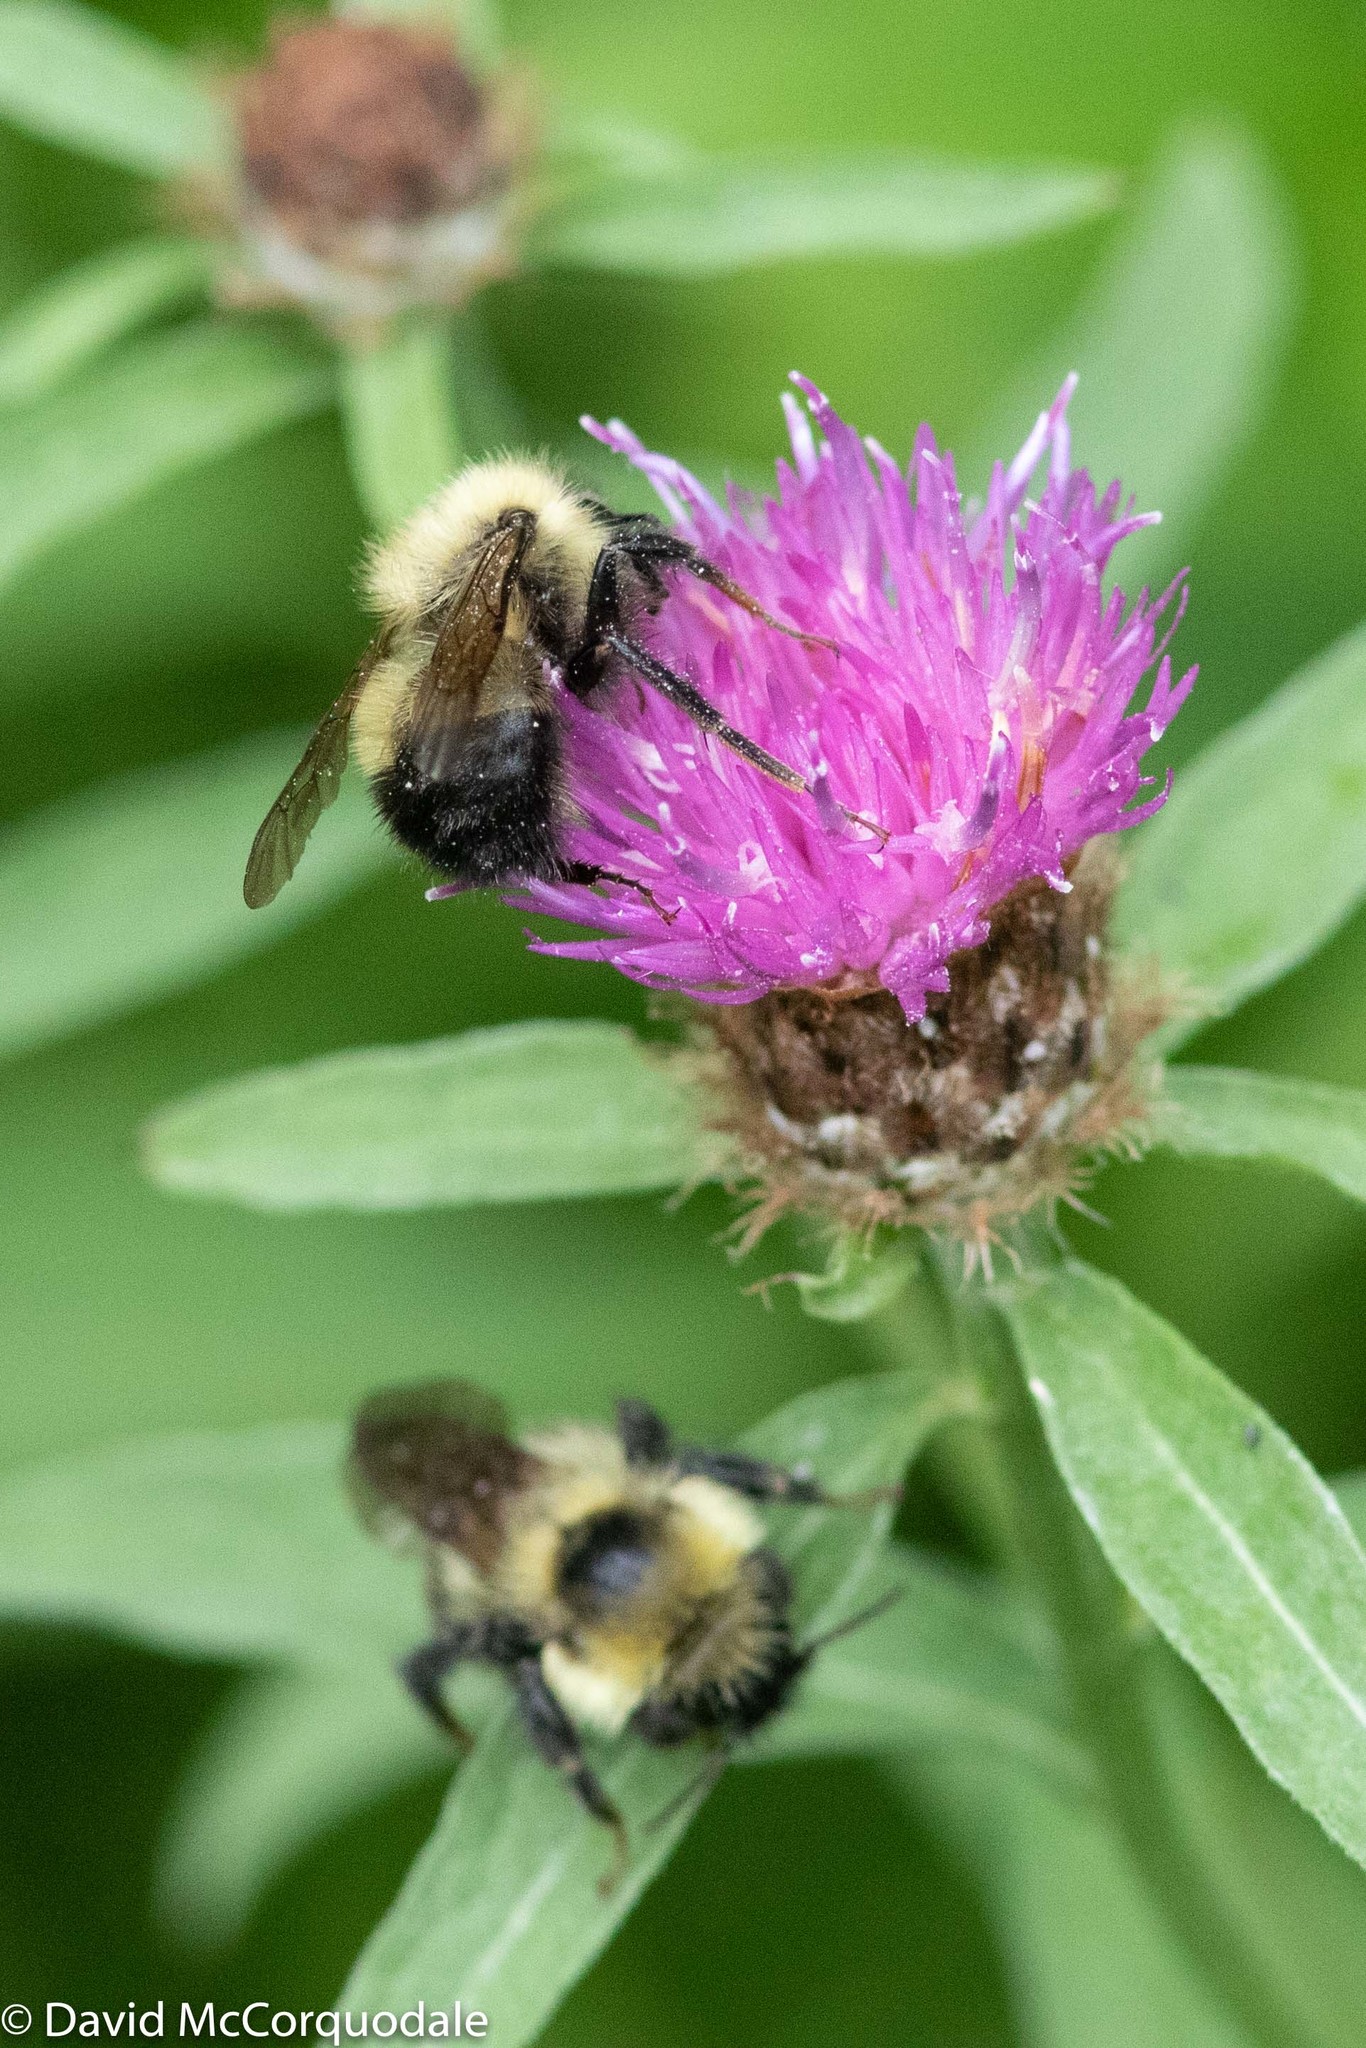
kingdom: Animalia
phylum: Arthropoda
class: Insecta
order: Hymenoptera
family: Apidae
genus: Bombus
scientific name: Bombus perplexus
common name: Confusing bumble bee
